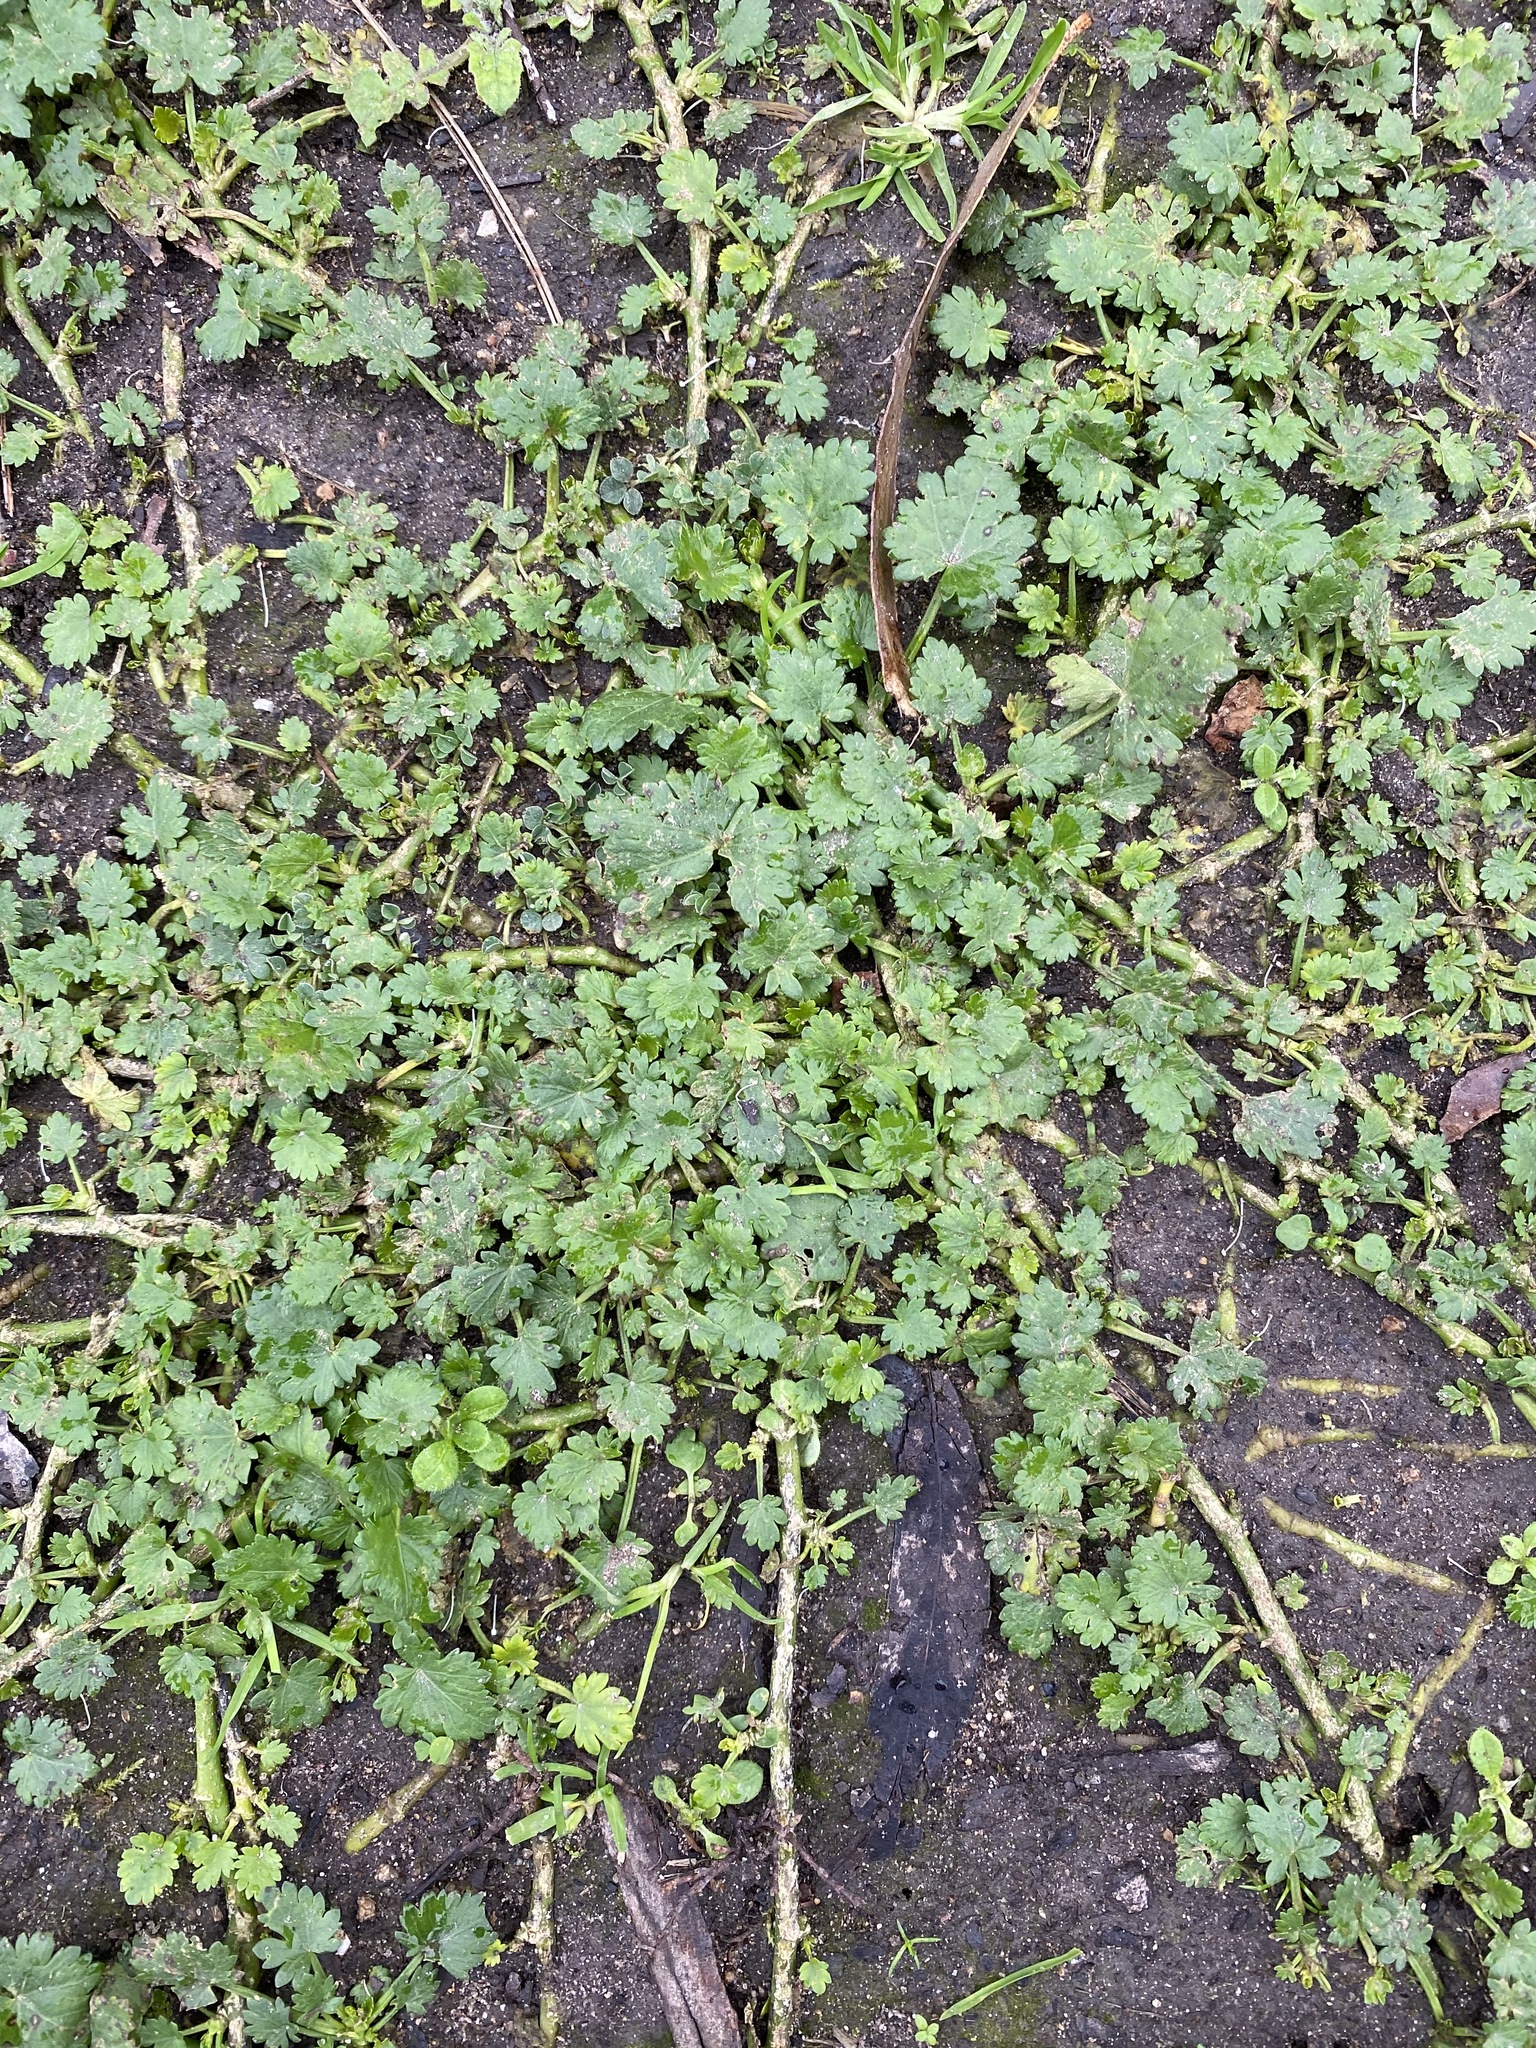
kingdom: Plantae
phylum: Tracheophyta
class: Magnoliopsida
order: Malvales
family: Malvaceae
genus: Modiola
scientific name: Modiola caroliniana
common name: Carolina bristlemallow
